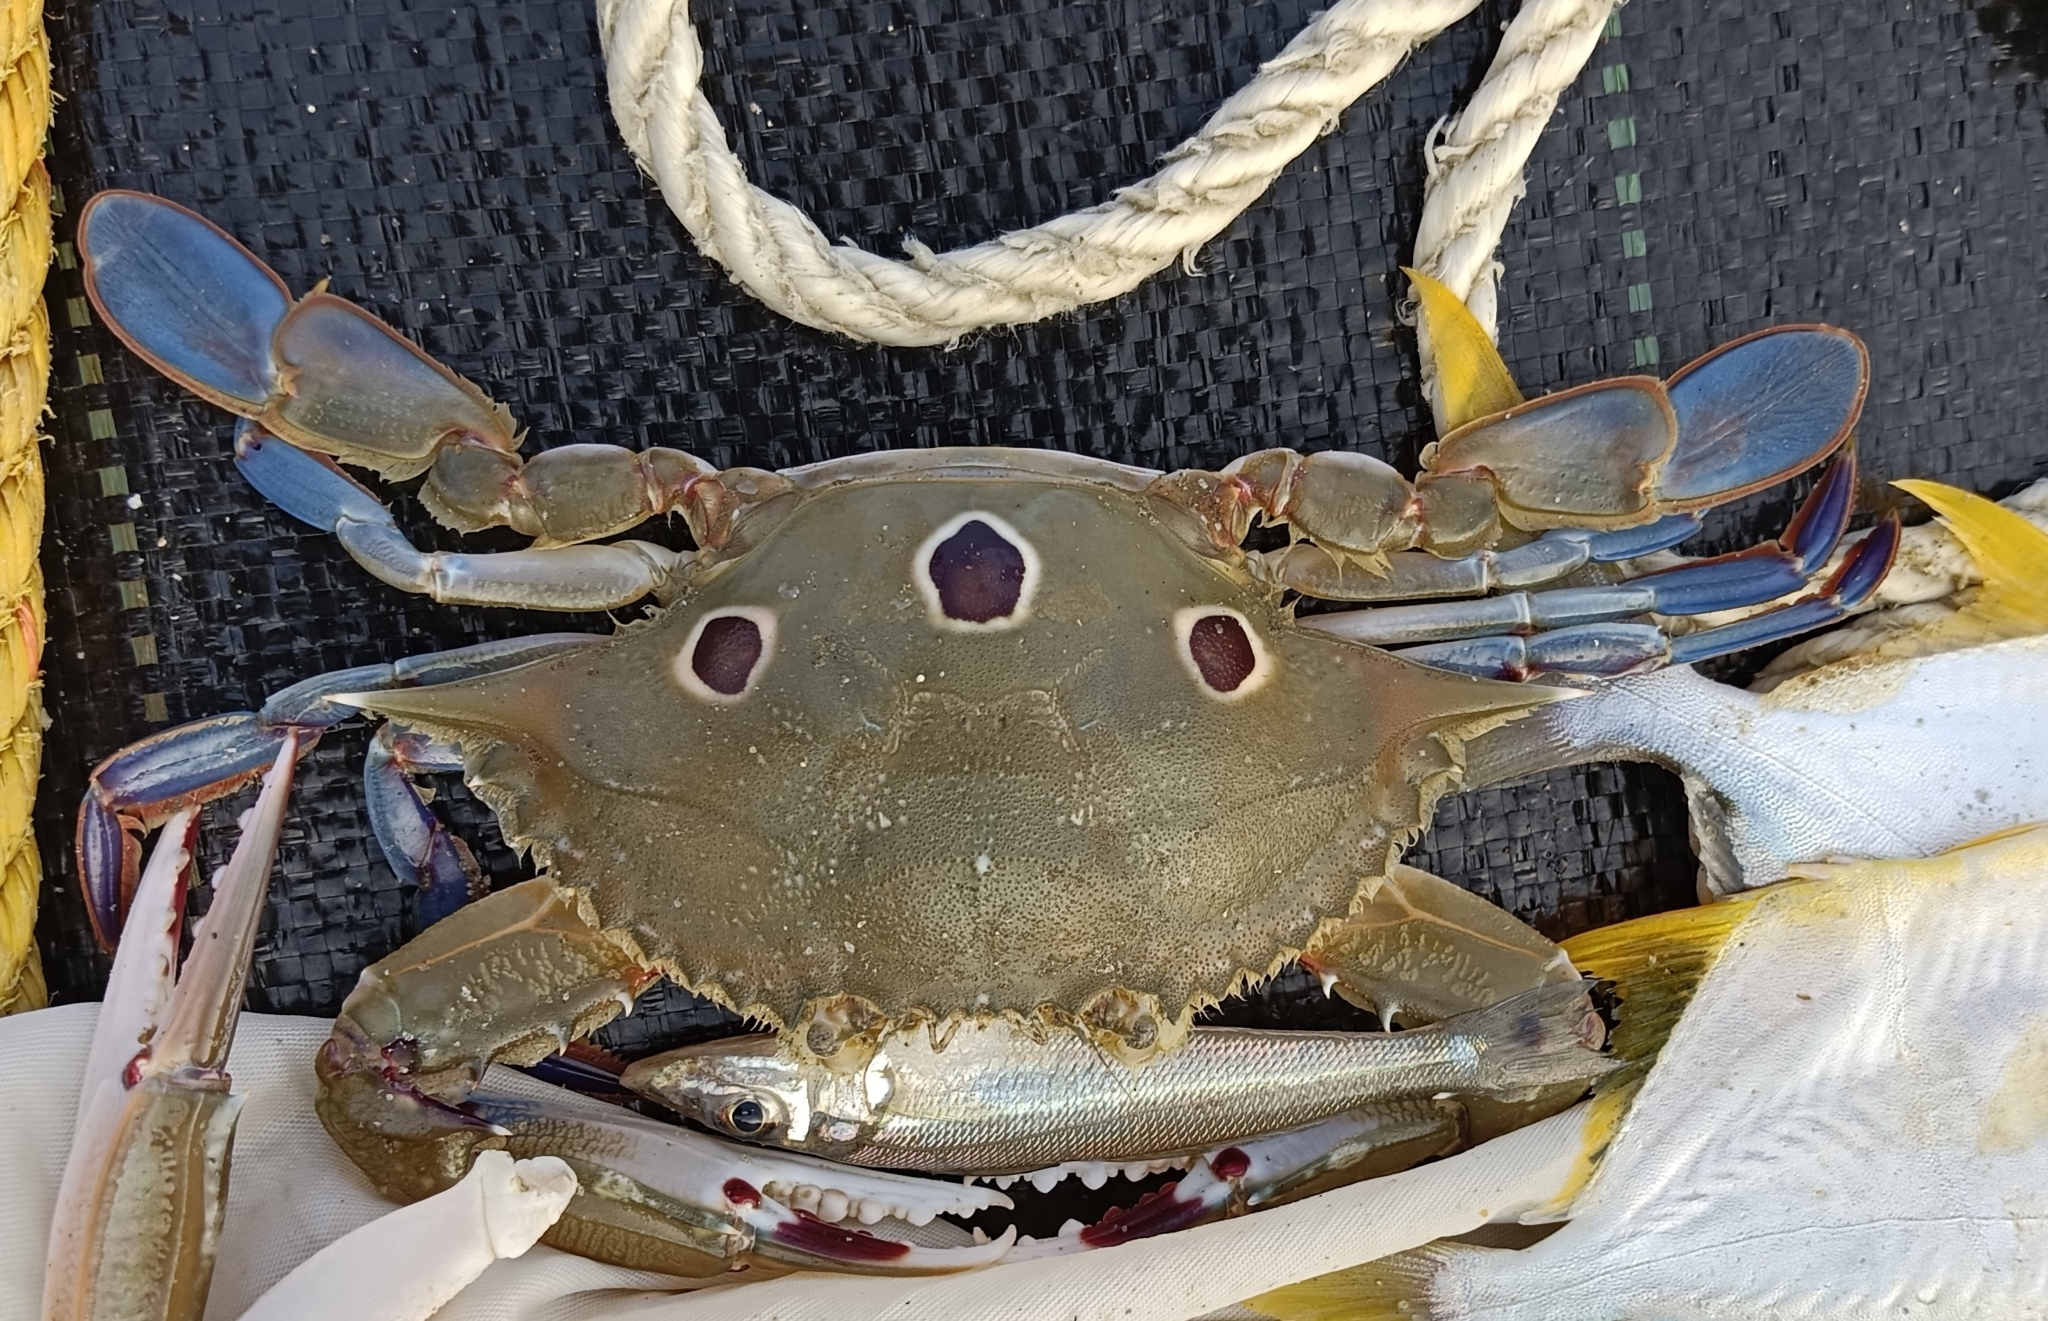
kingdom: Animalia
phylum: Arthropoda
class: Malacostraca
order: Decapoda
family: Portunidae
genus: Portunus
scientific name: Portunus sanguinolentus
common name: Blood-spotted swimming crab
